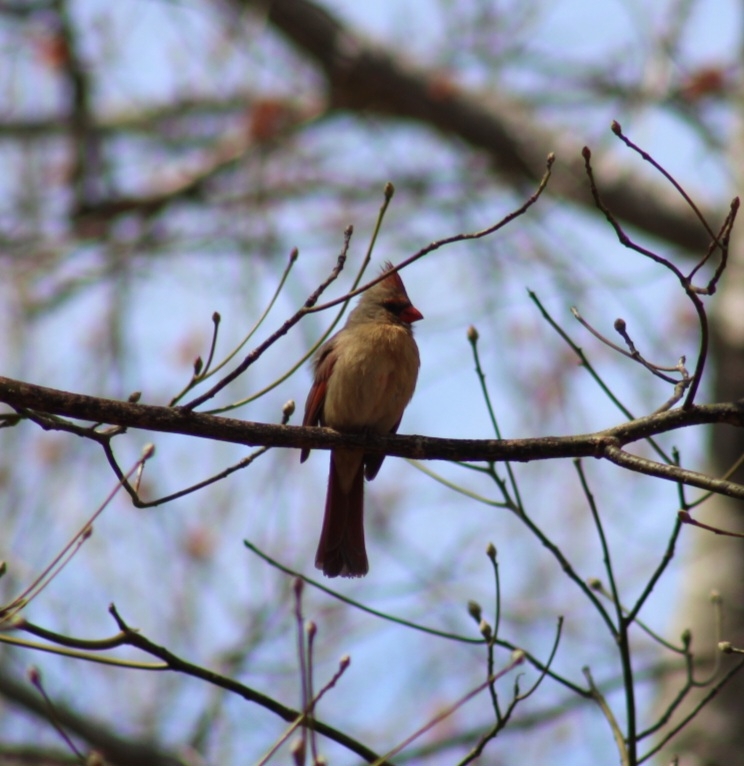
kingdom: Animalia
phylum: Chordata
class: Aves
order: Passeriformes
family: Cardinalidae
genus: Cardinalis
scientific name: Cardinalis cardinalis
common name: Northern cardinal
